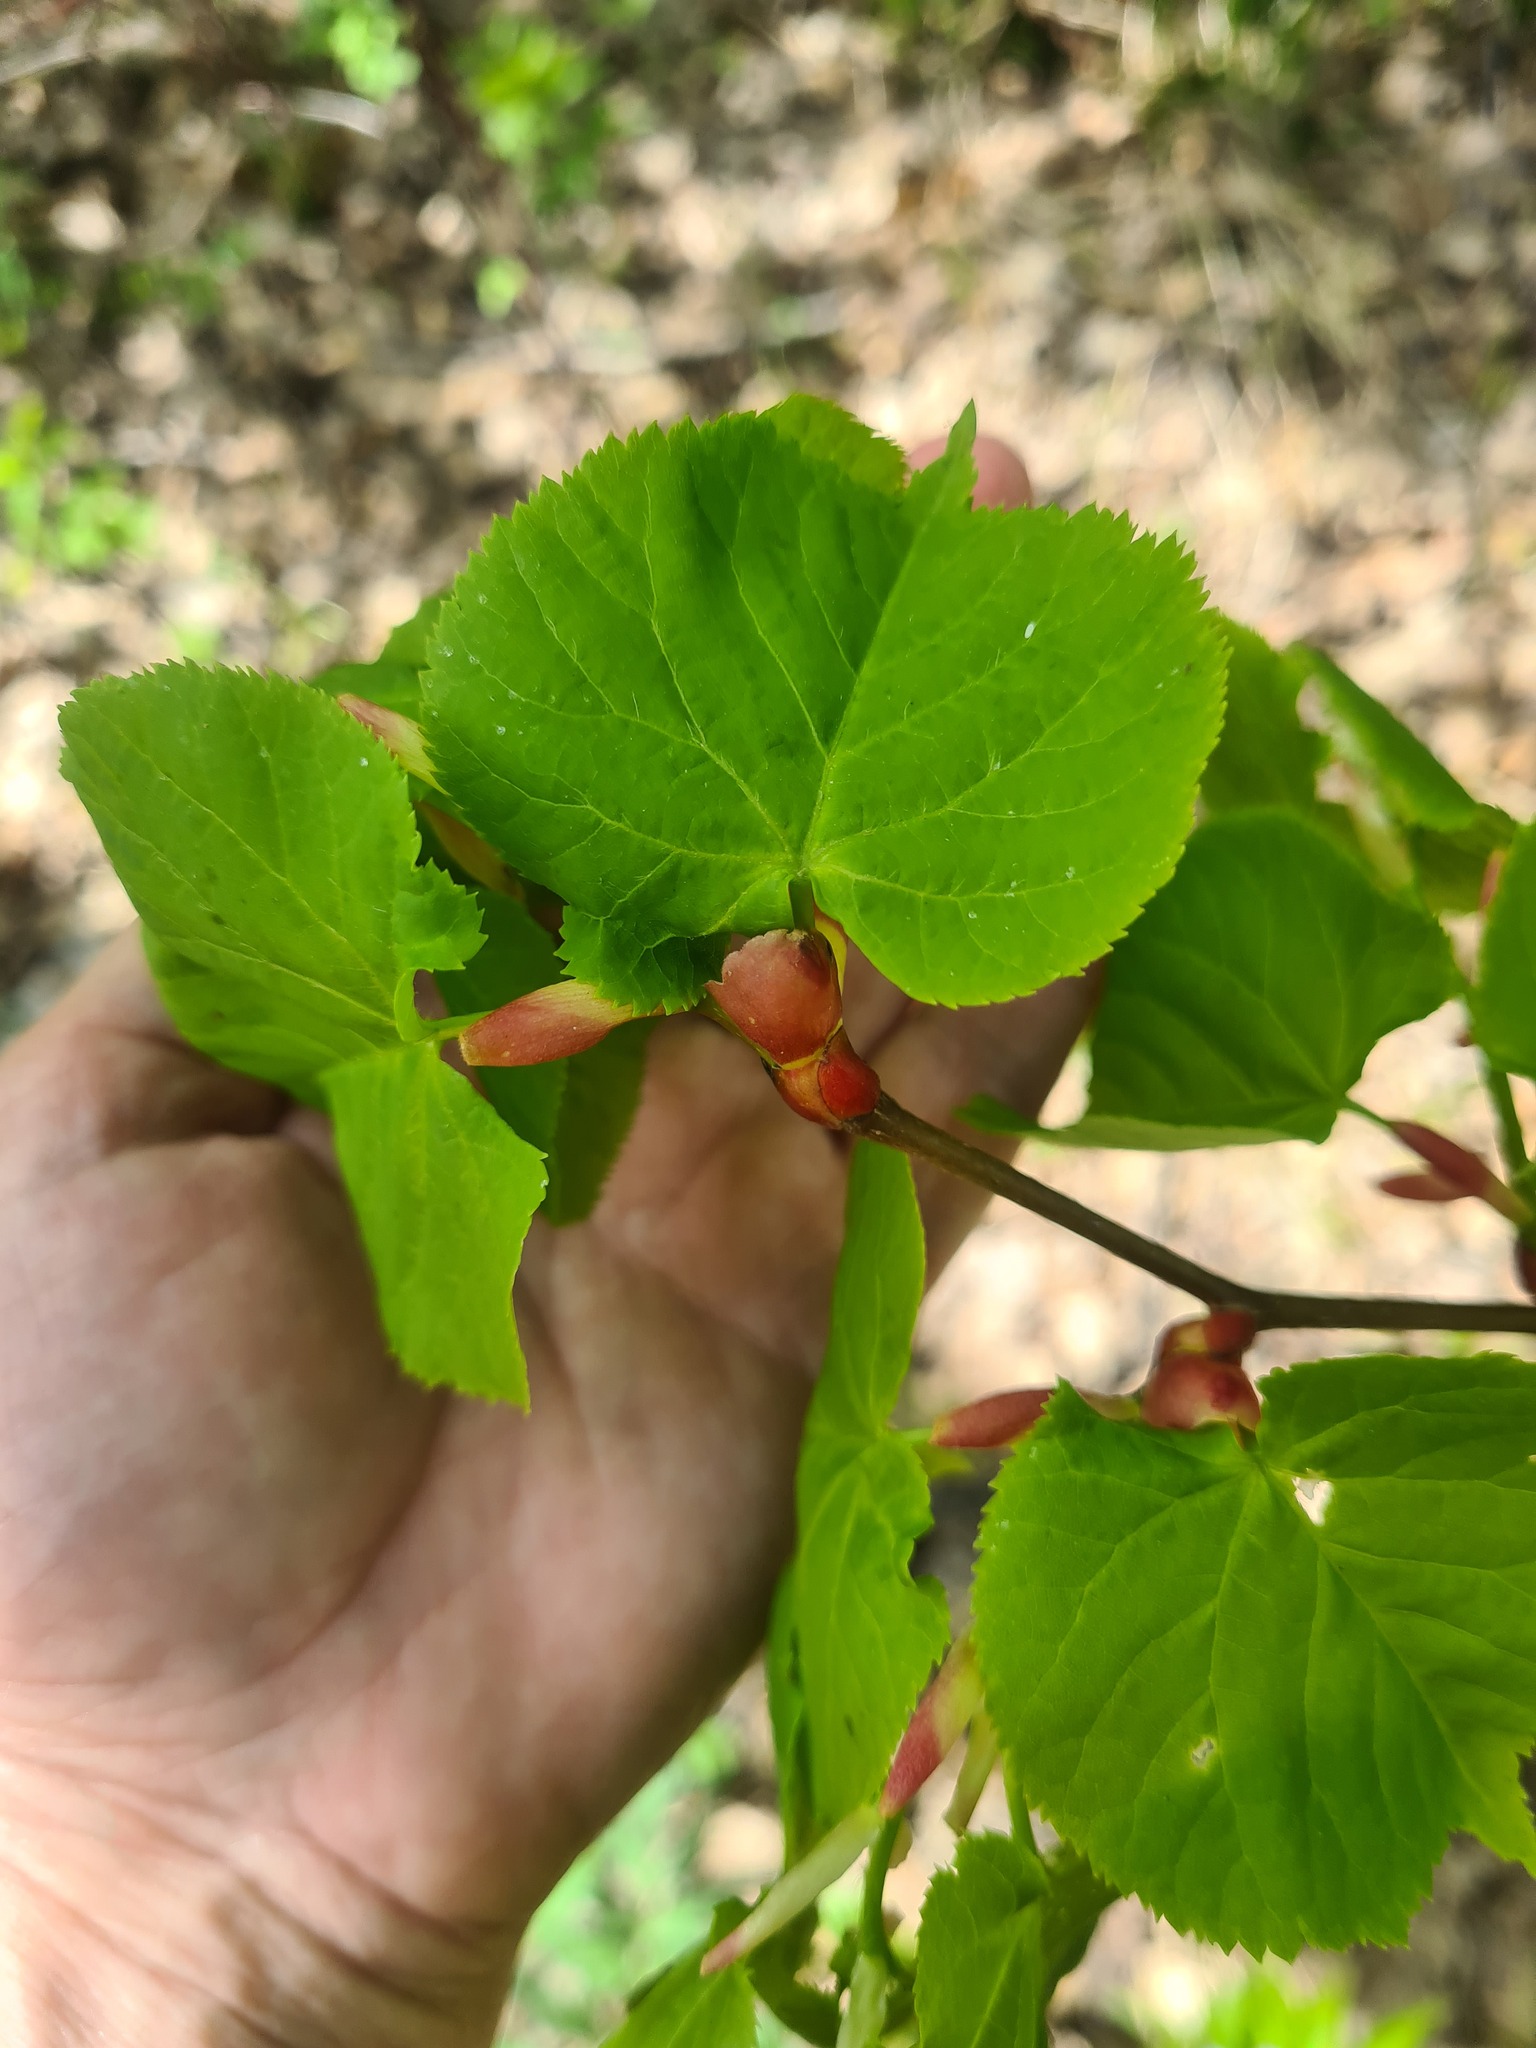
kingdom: Plantae
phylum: Tracheophyta
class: Magnoliopsida
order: Malvales
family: Malvaceae
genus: Tilia
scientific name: Tilia cordata
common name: Small-leaved lime
